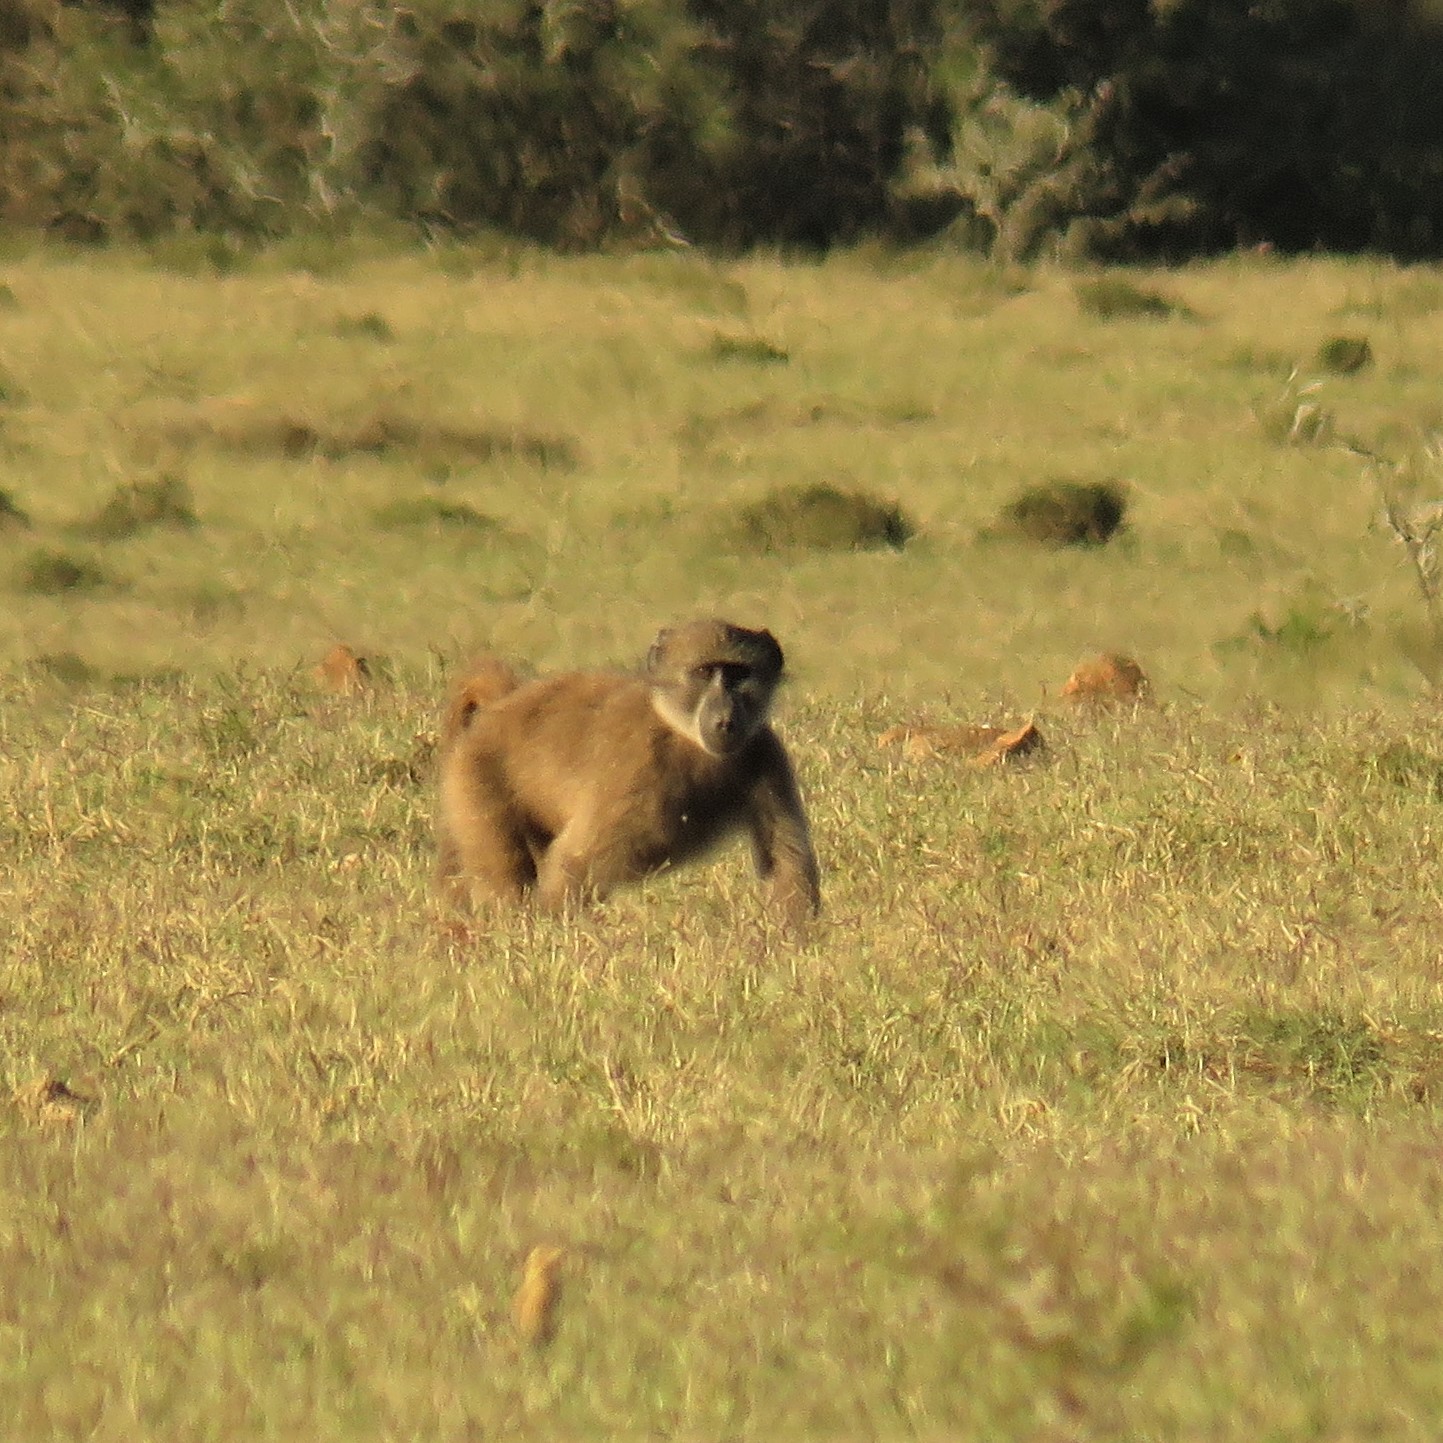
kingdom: Animalia
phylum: Chordata
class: Mammalia
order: Primates
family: Cercopithecidae
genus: Papio
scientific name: Papio ursinus
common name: Chacma baboon
